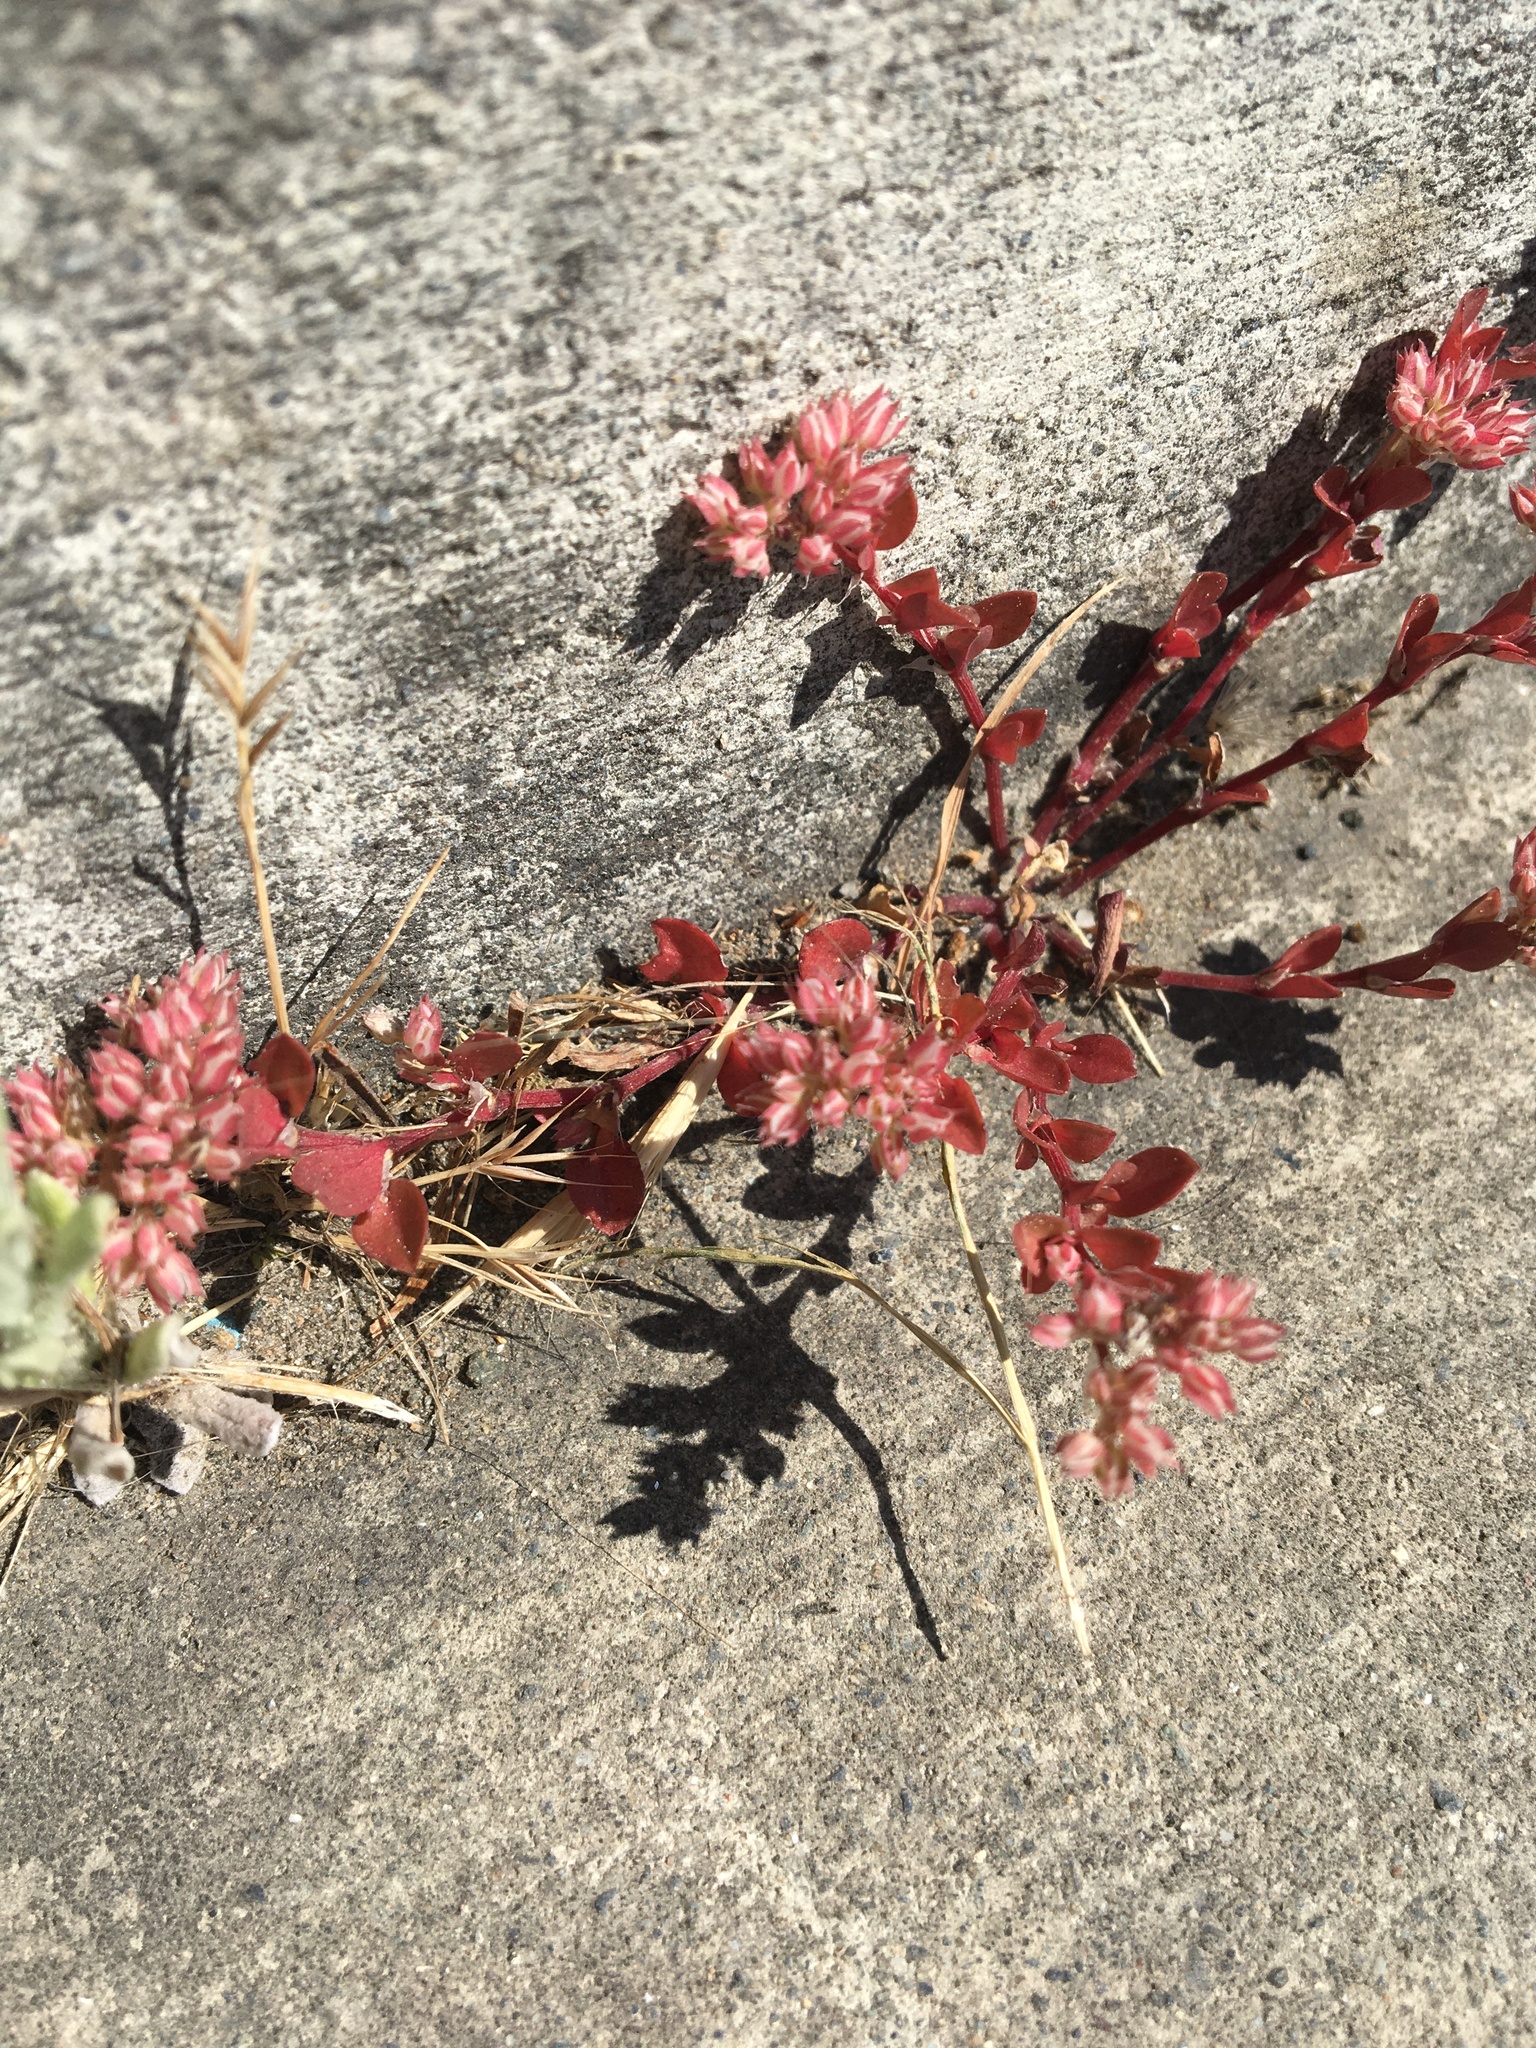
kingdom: Plantae
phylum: Tracheophyta
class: Magnoliopsida
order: Caryophyllales
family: Caryophyllaceae
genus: Polycarpon
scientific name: Polycarpon tetraphyllum
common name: Four-leaved all-seed
